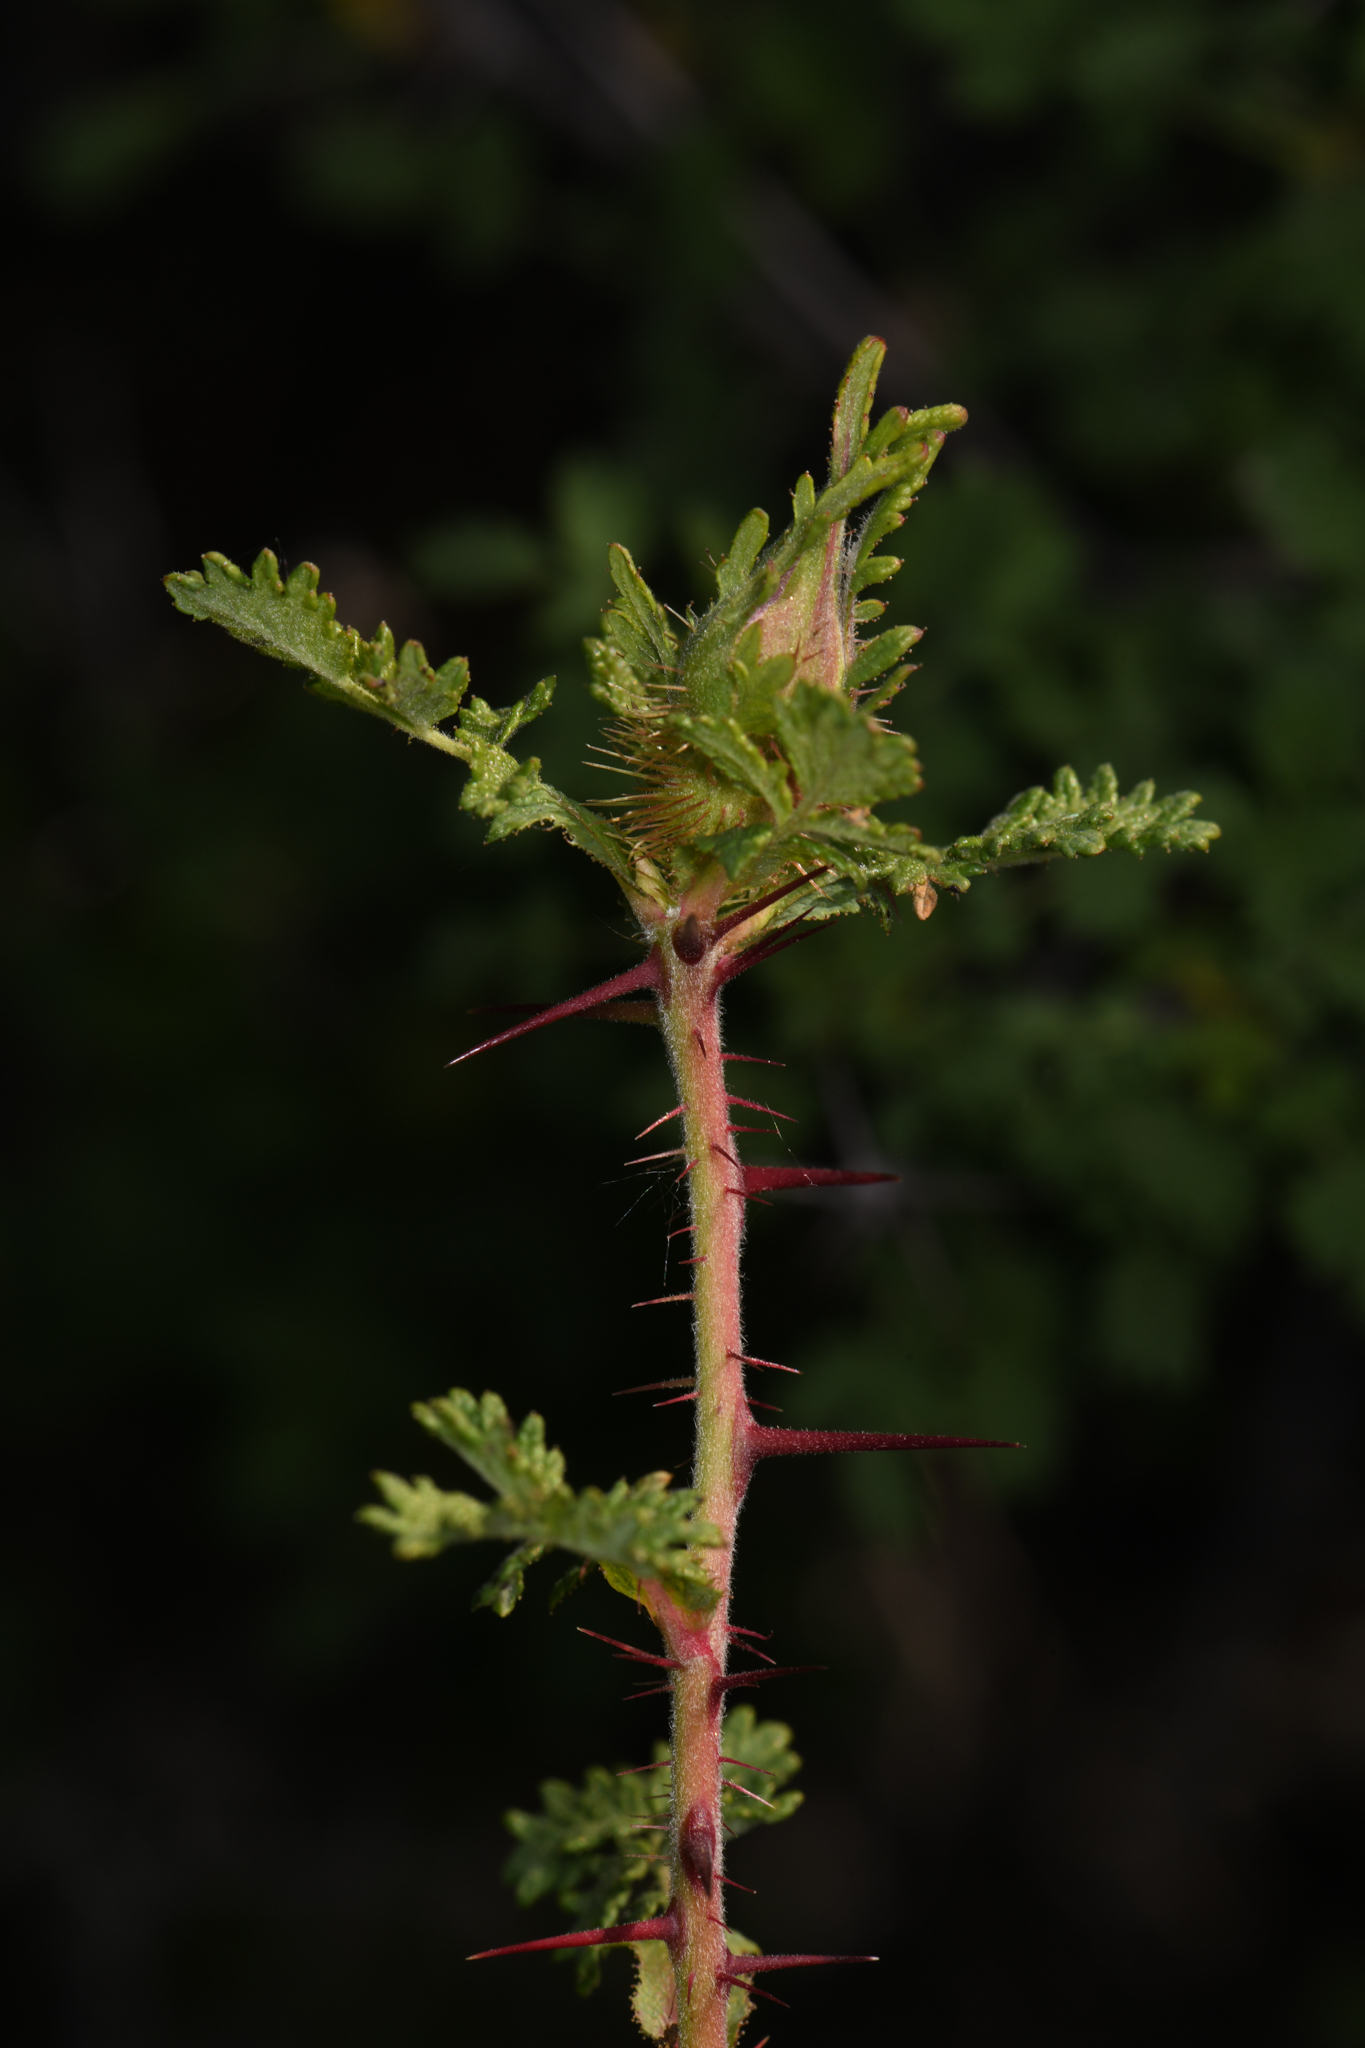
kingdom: Plantae
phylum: Tracheophyta
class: Magnoliopsida
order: Rosales
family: Rosaceae
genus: Rosa
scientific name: Rosa minutifolia
